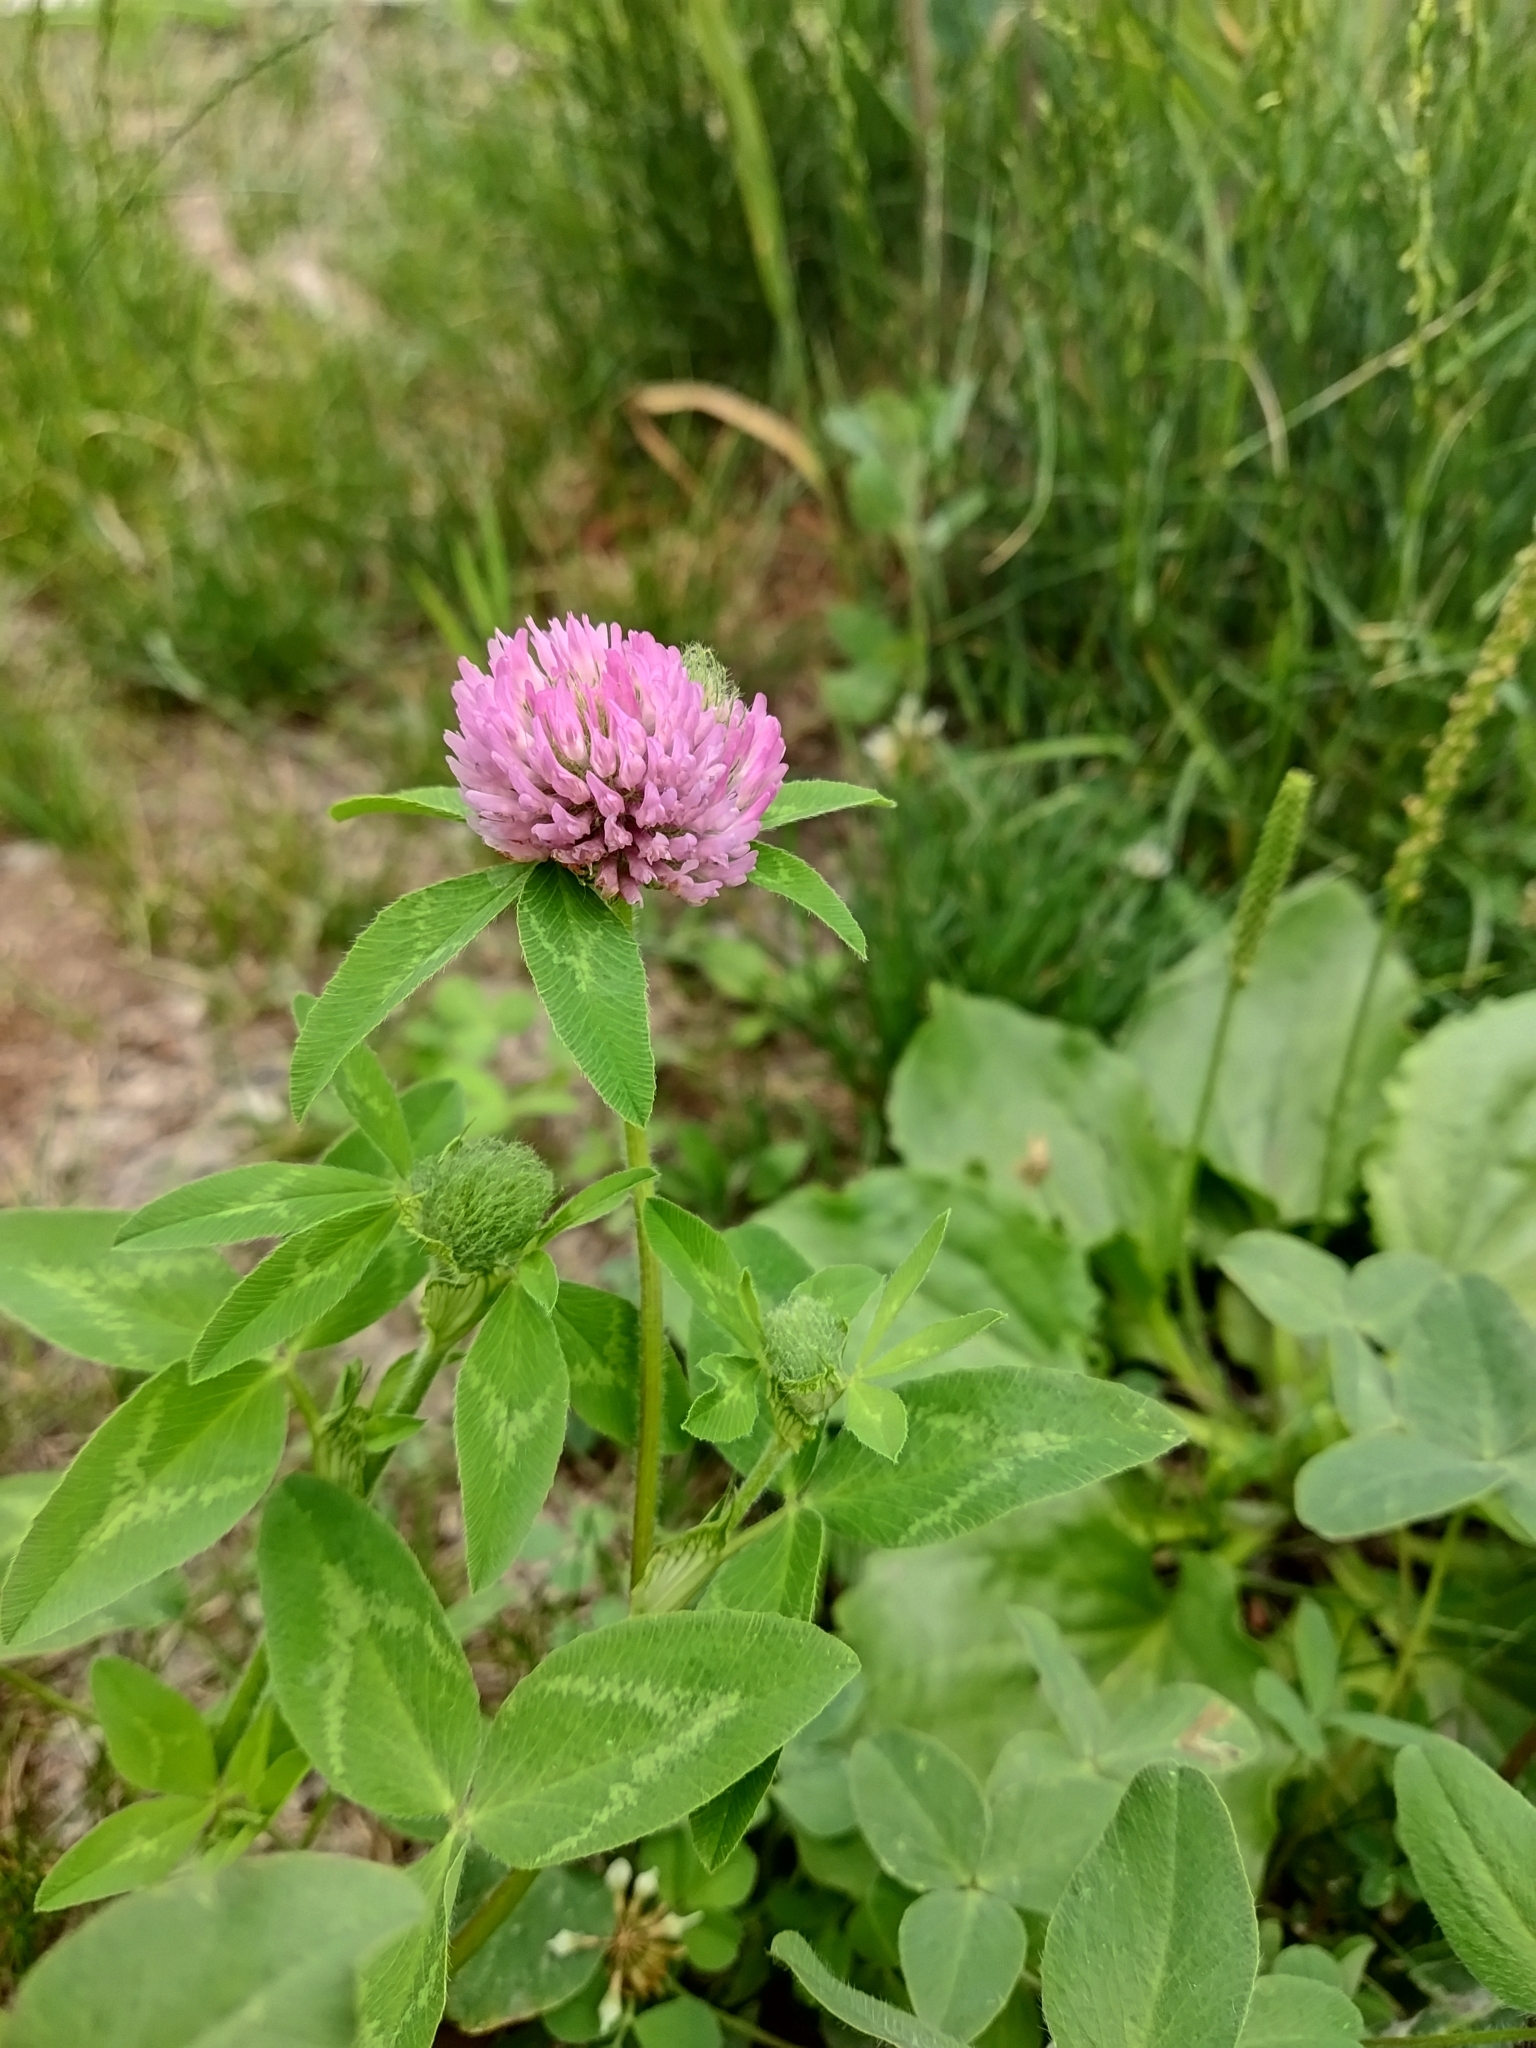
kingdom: Plantae
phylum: Tracheophyta
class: Magnoliopsida
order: Fabales
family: Fabaceae
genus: Trifolium
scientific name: Trifolium pratense
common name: Red clover
